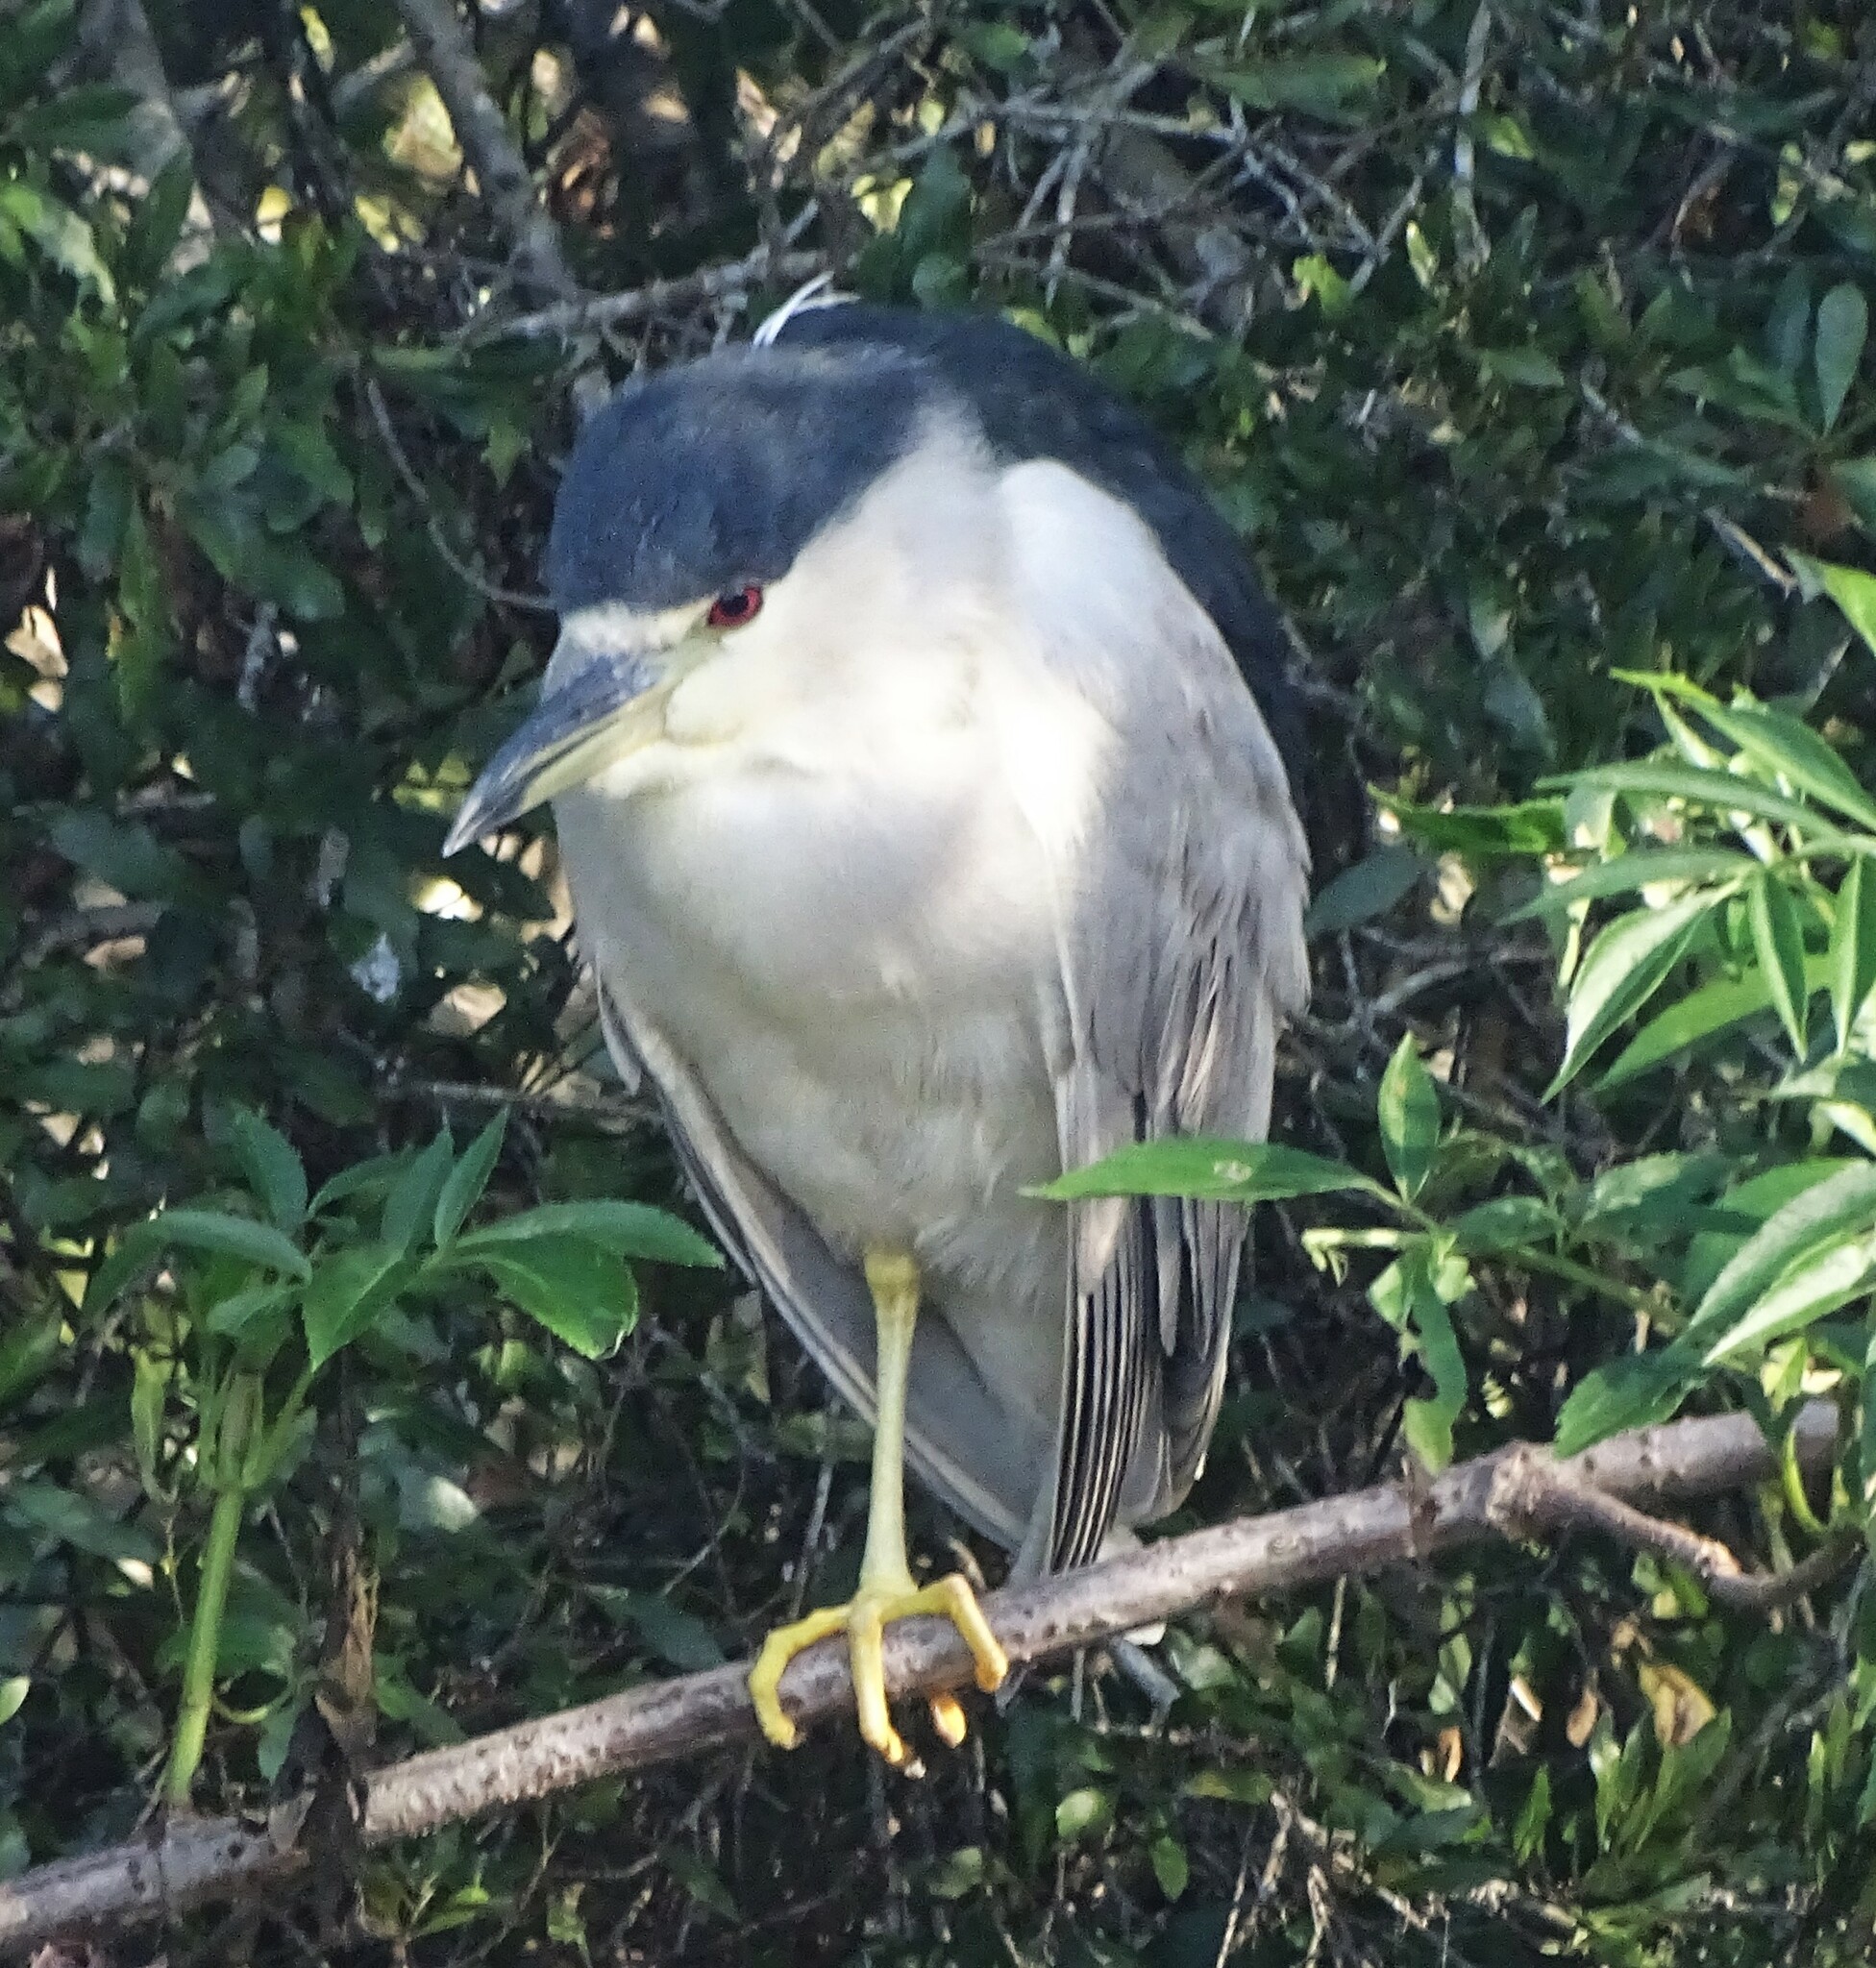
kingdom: Animalia
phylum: Chordata
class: Aves
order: Pelecaniformes
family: Ardeidae
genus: Nycticorax
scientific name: Nycticorax nycticorax
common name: Black-crowned night heron
